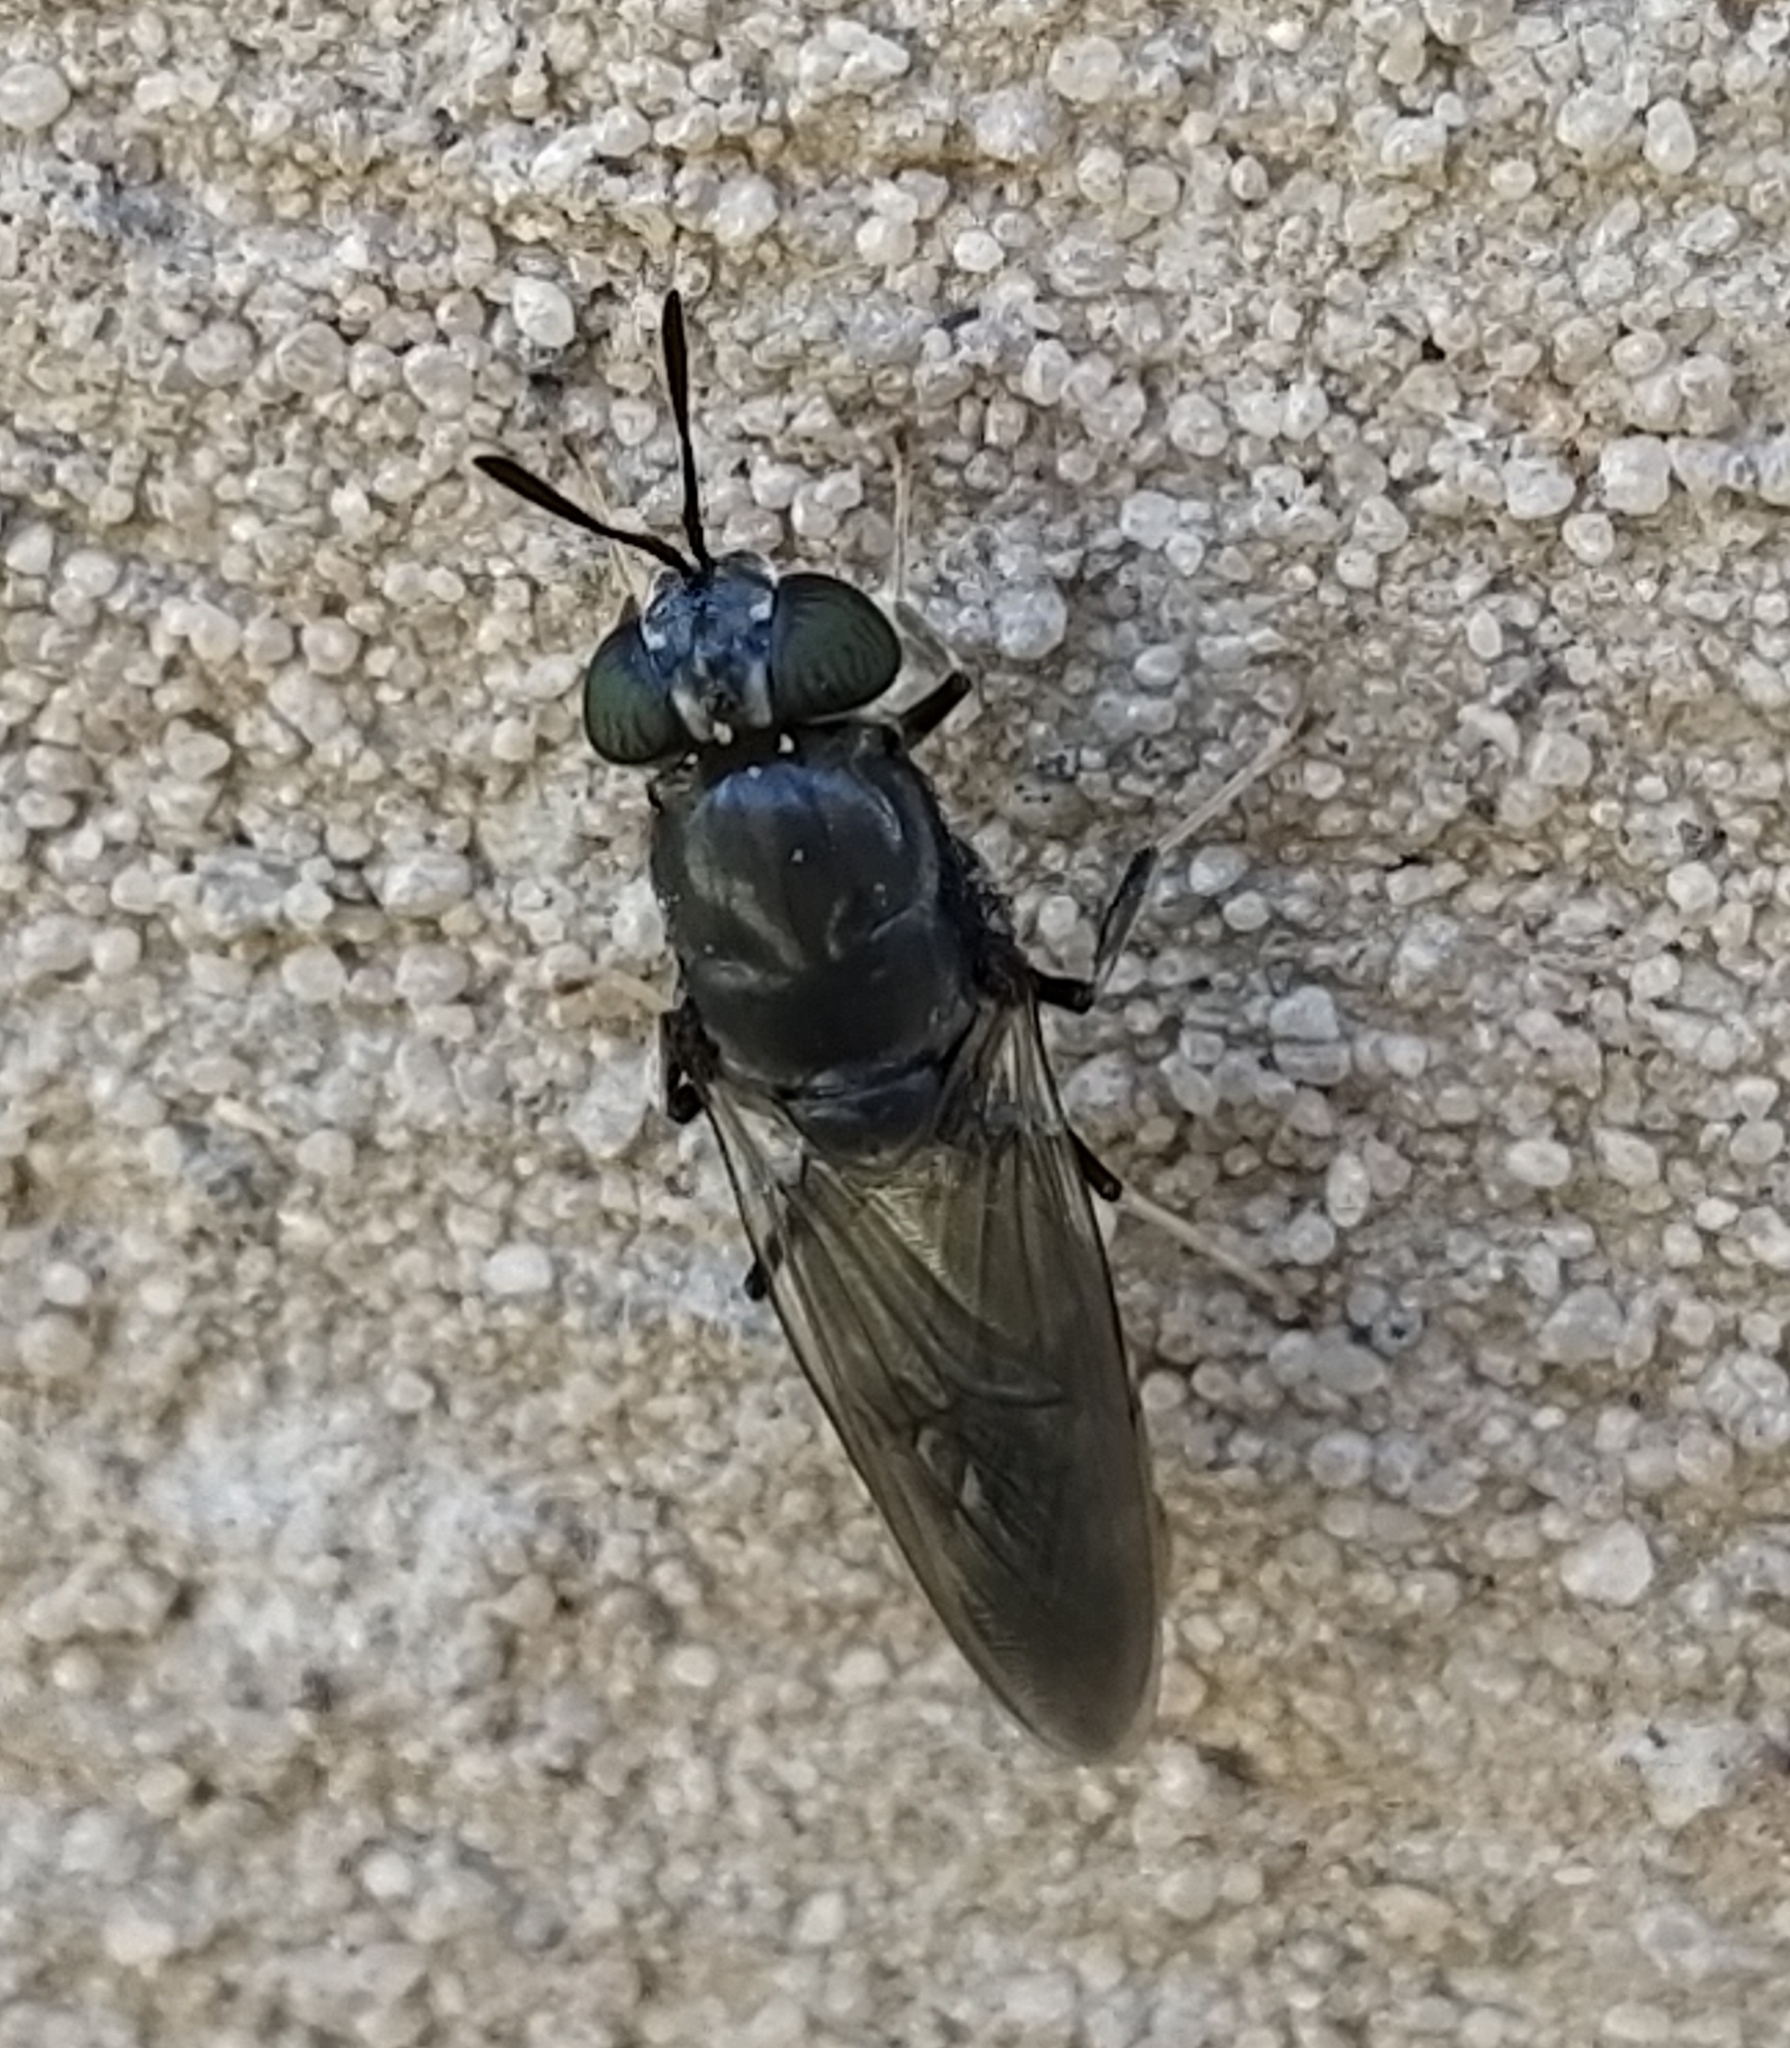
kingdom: Animalia
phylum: Arthropoda
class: Insecta
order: Diptera
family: Stratiomyidae
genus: Hermetia
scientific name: Hermetia illucens
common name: Black soldier fly
